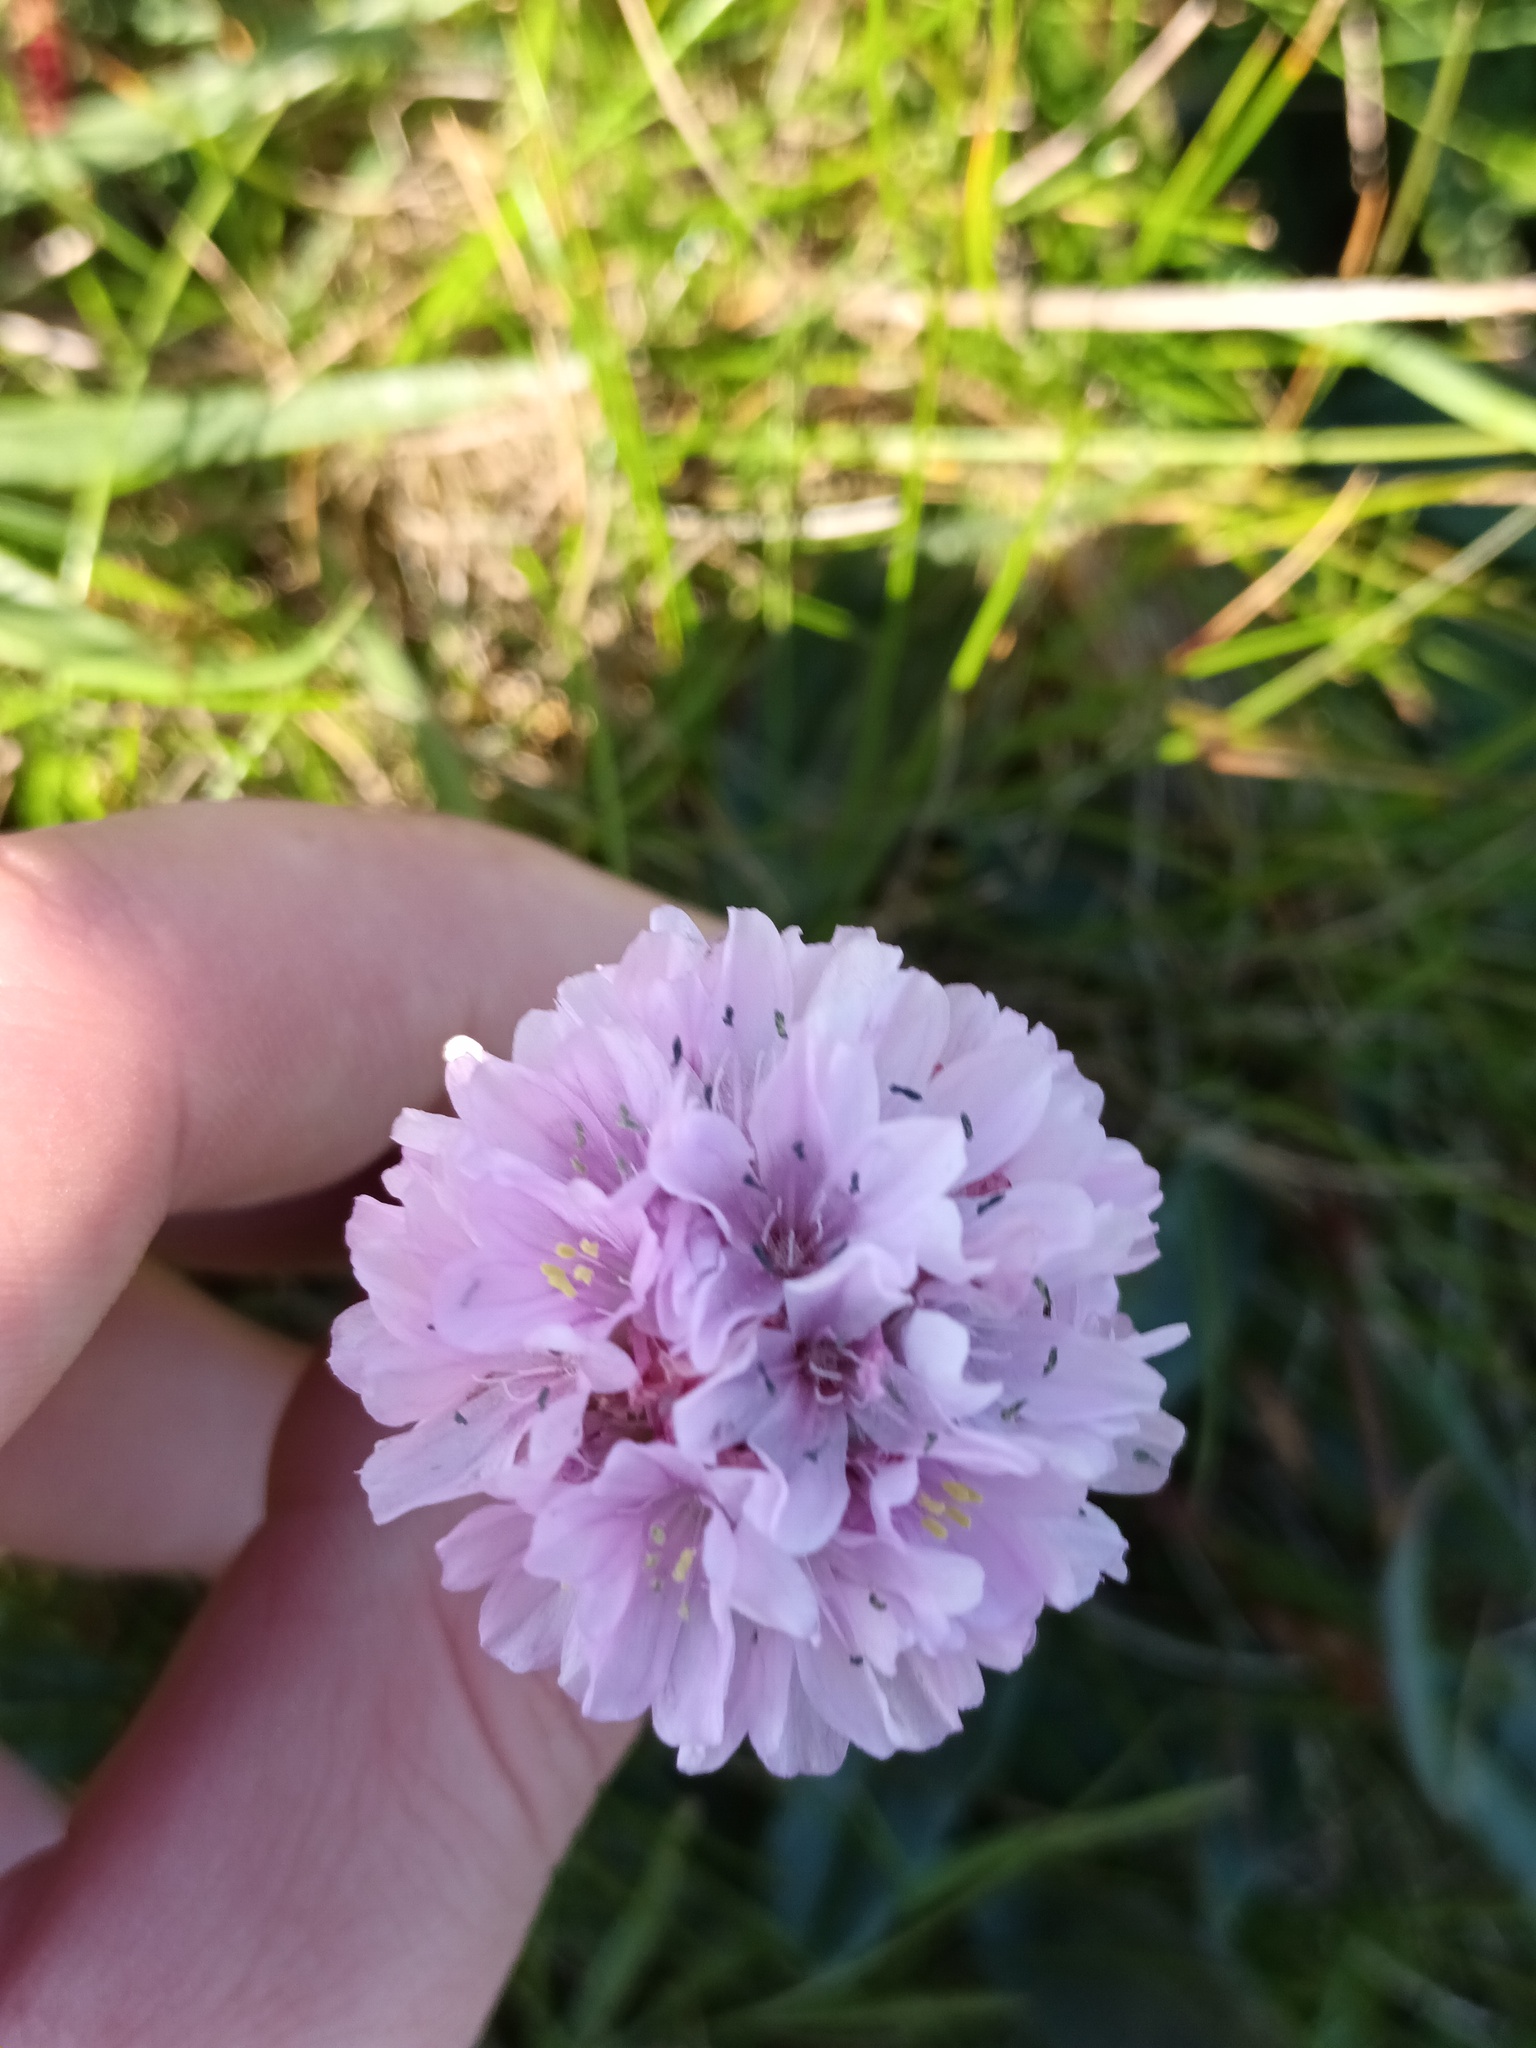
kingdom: Plantae
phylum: Tracheophyta
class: Magnoliopsida
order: Caryophyllales
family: Plumbaginaceae
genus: Armeria
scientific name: Armeria maritima
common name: Thrift
